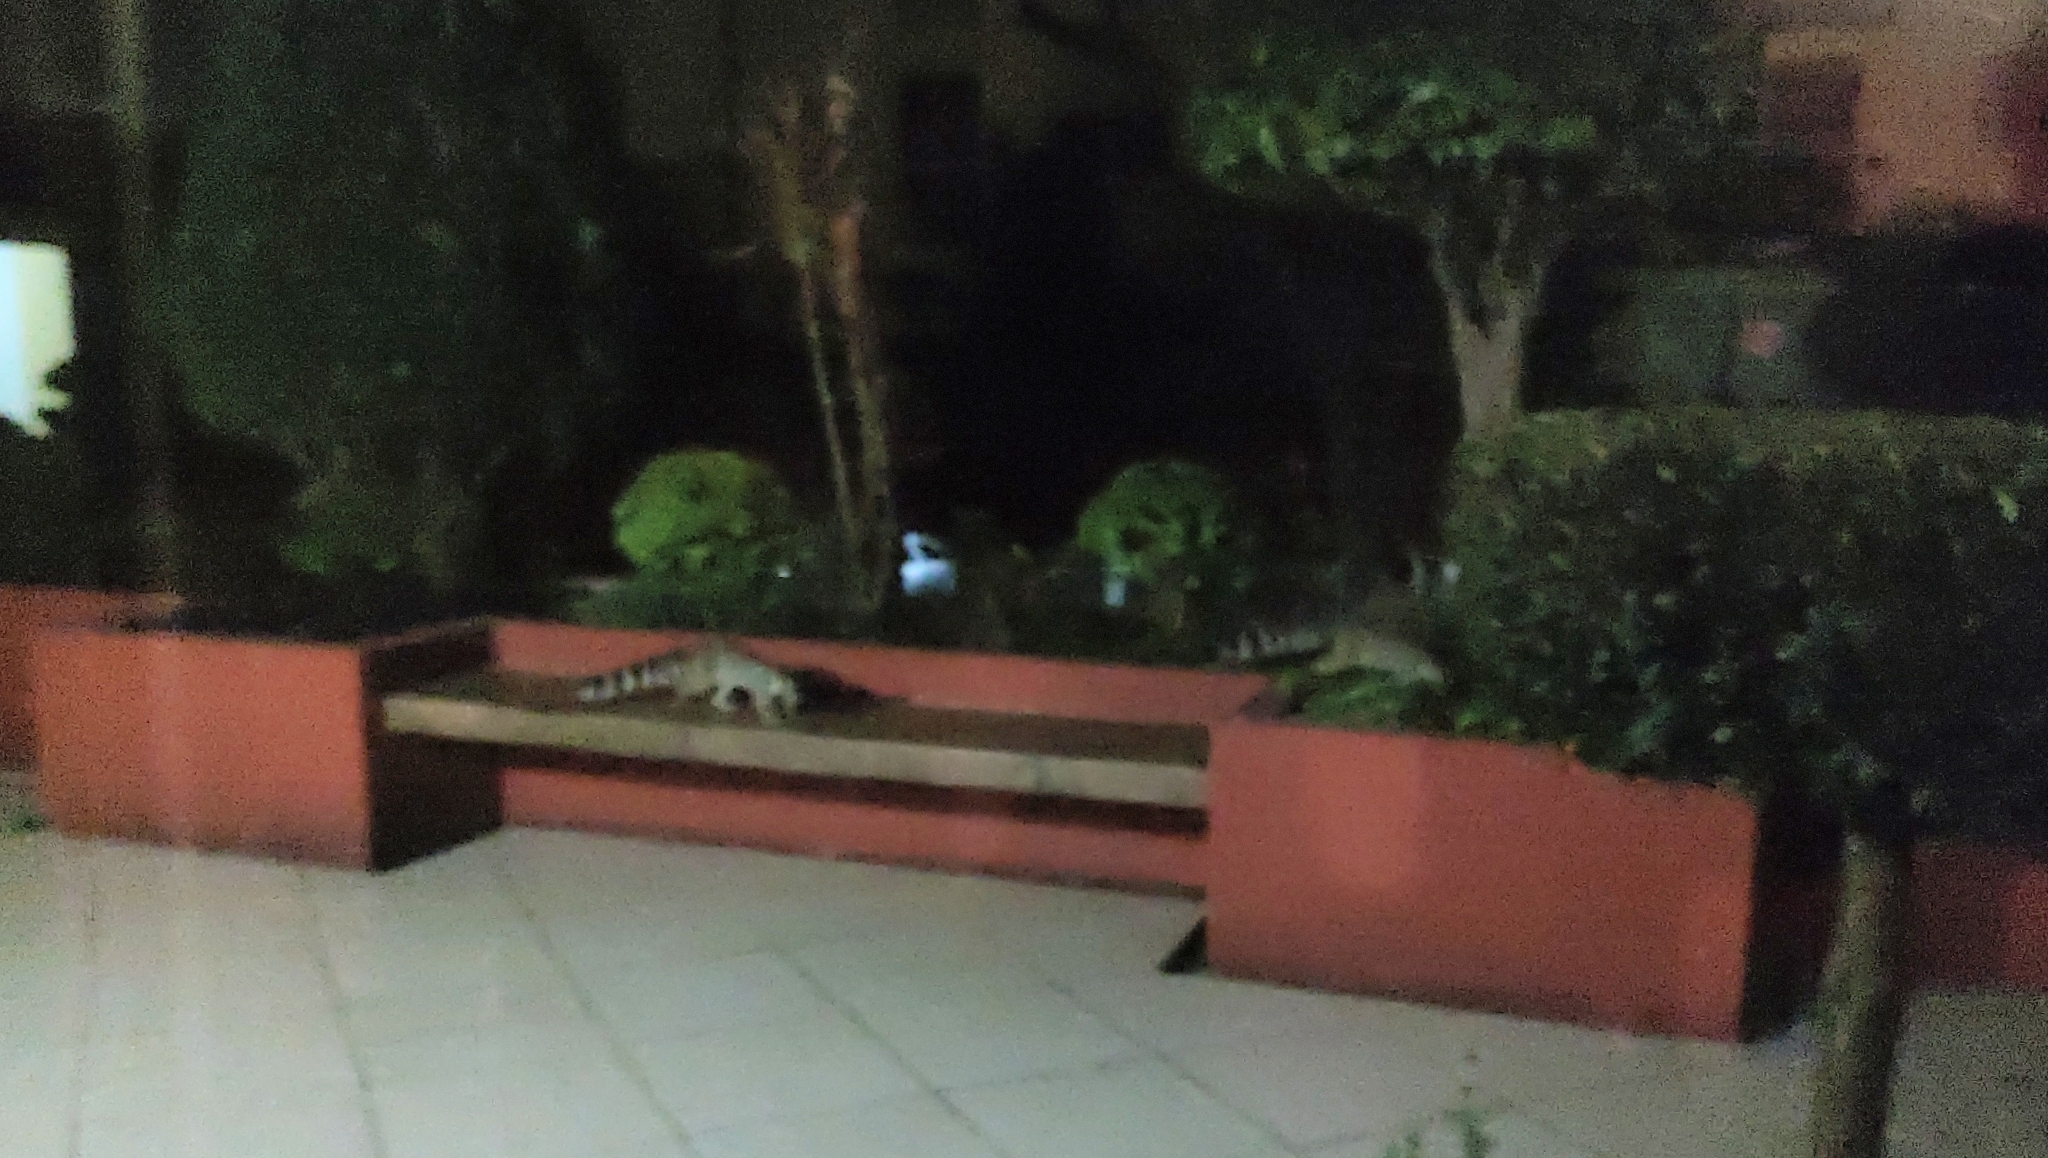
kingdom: Animalia
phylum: Chordata
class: Mammalia
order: Carnivora
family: Procyonidae
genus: Bassariscus
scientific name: Bassariscus astutus
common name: Ringtail
